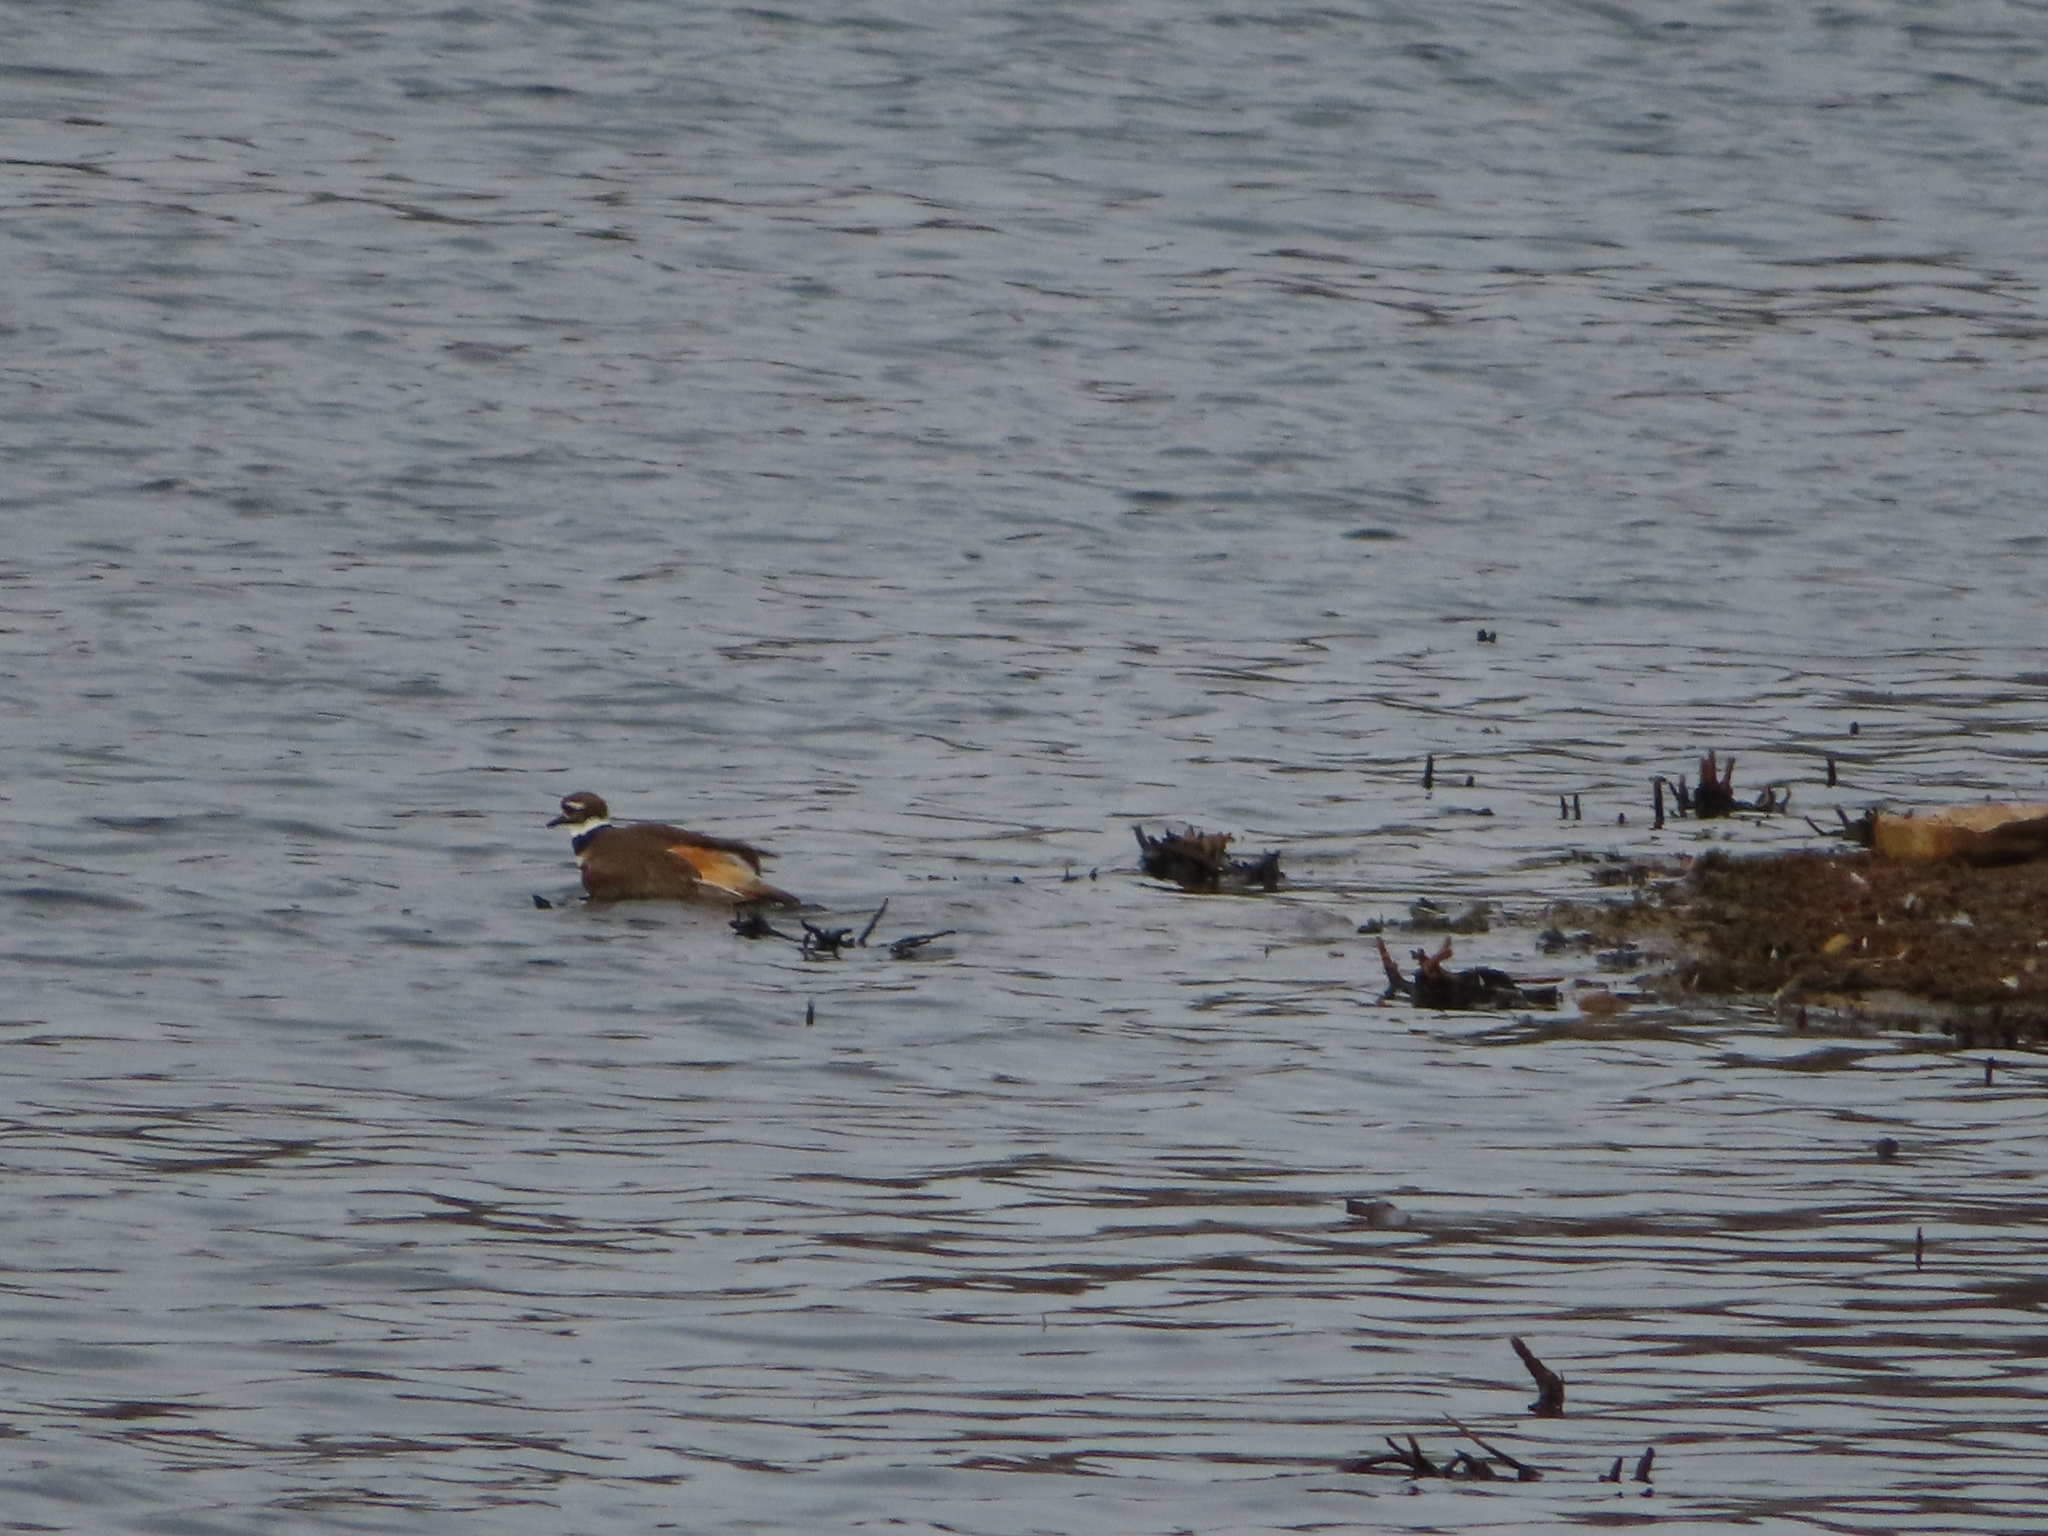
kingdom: Animalia
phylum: Chordata
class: Aves
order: Charadriiformes
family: Charadriidae
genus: Charadrius
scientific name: Charadrius vociferus
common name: Killdeer
